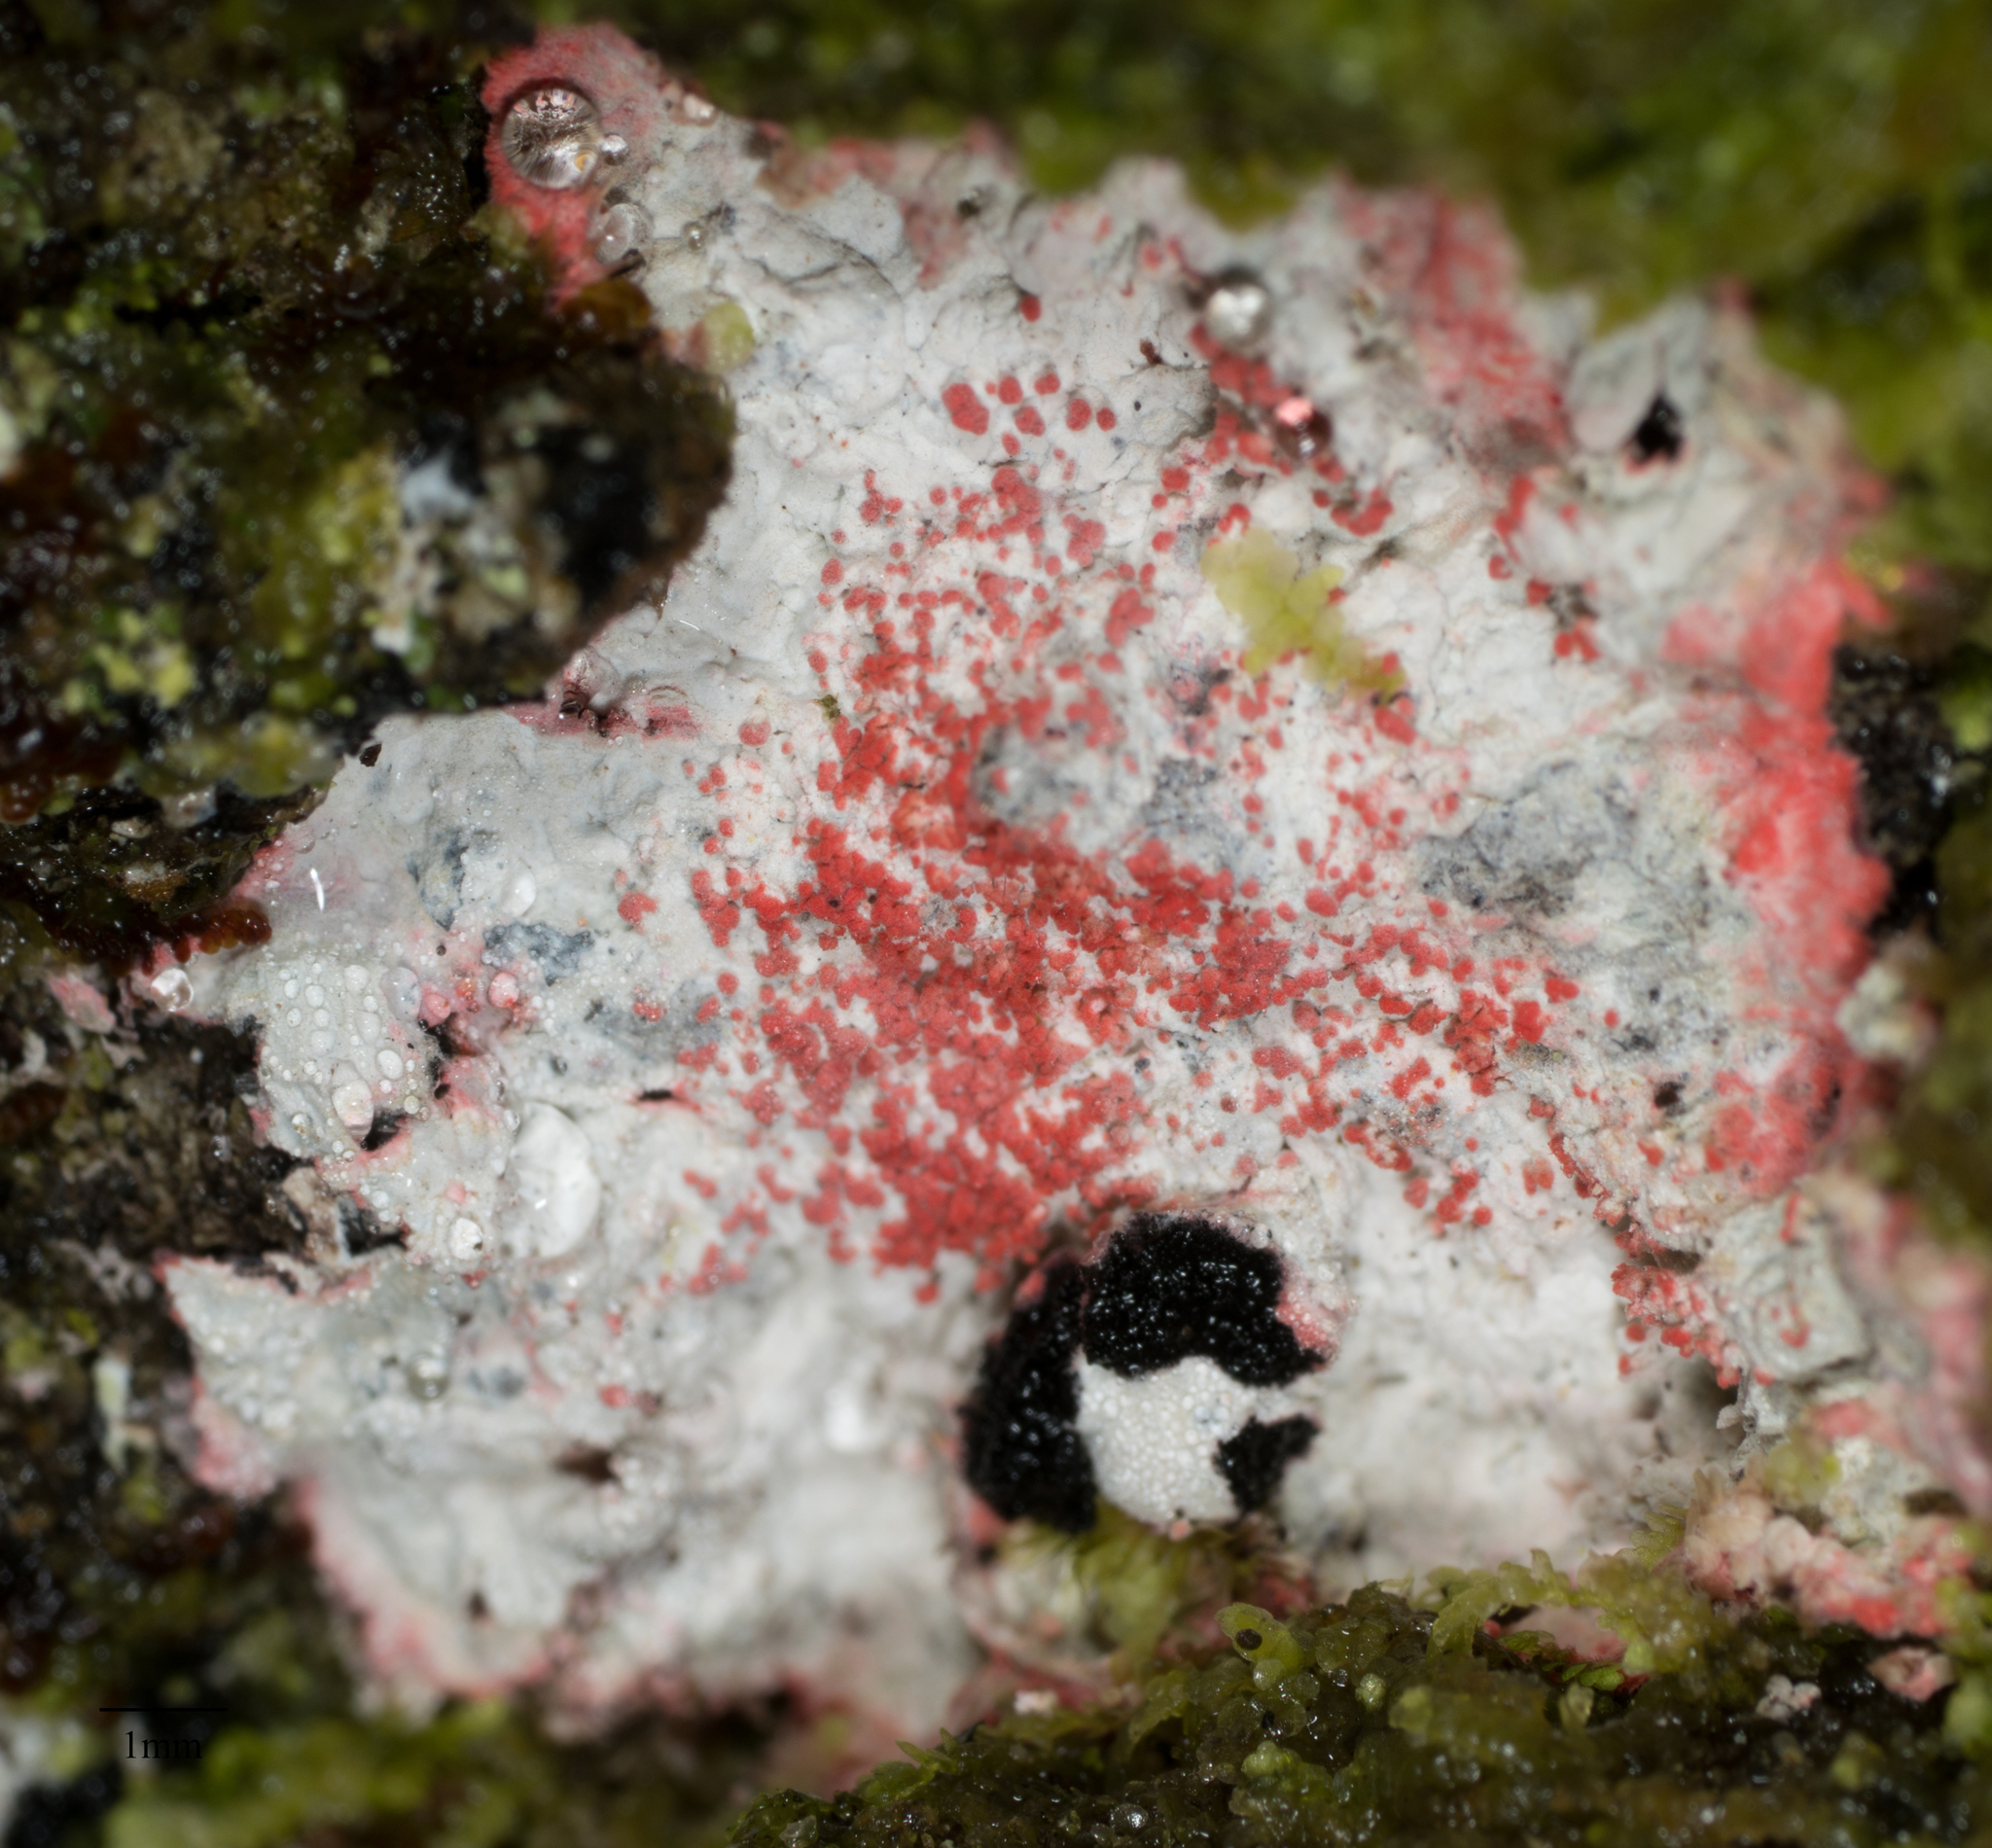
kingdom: Fungi
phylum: Ascomycota
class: Arthoniomycetes
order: Arthoniales
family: Arthoniaceae
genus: Herpothallon
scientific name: Herpothallon rubrocinctum
